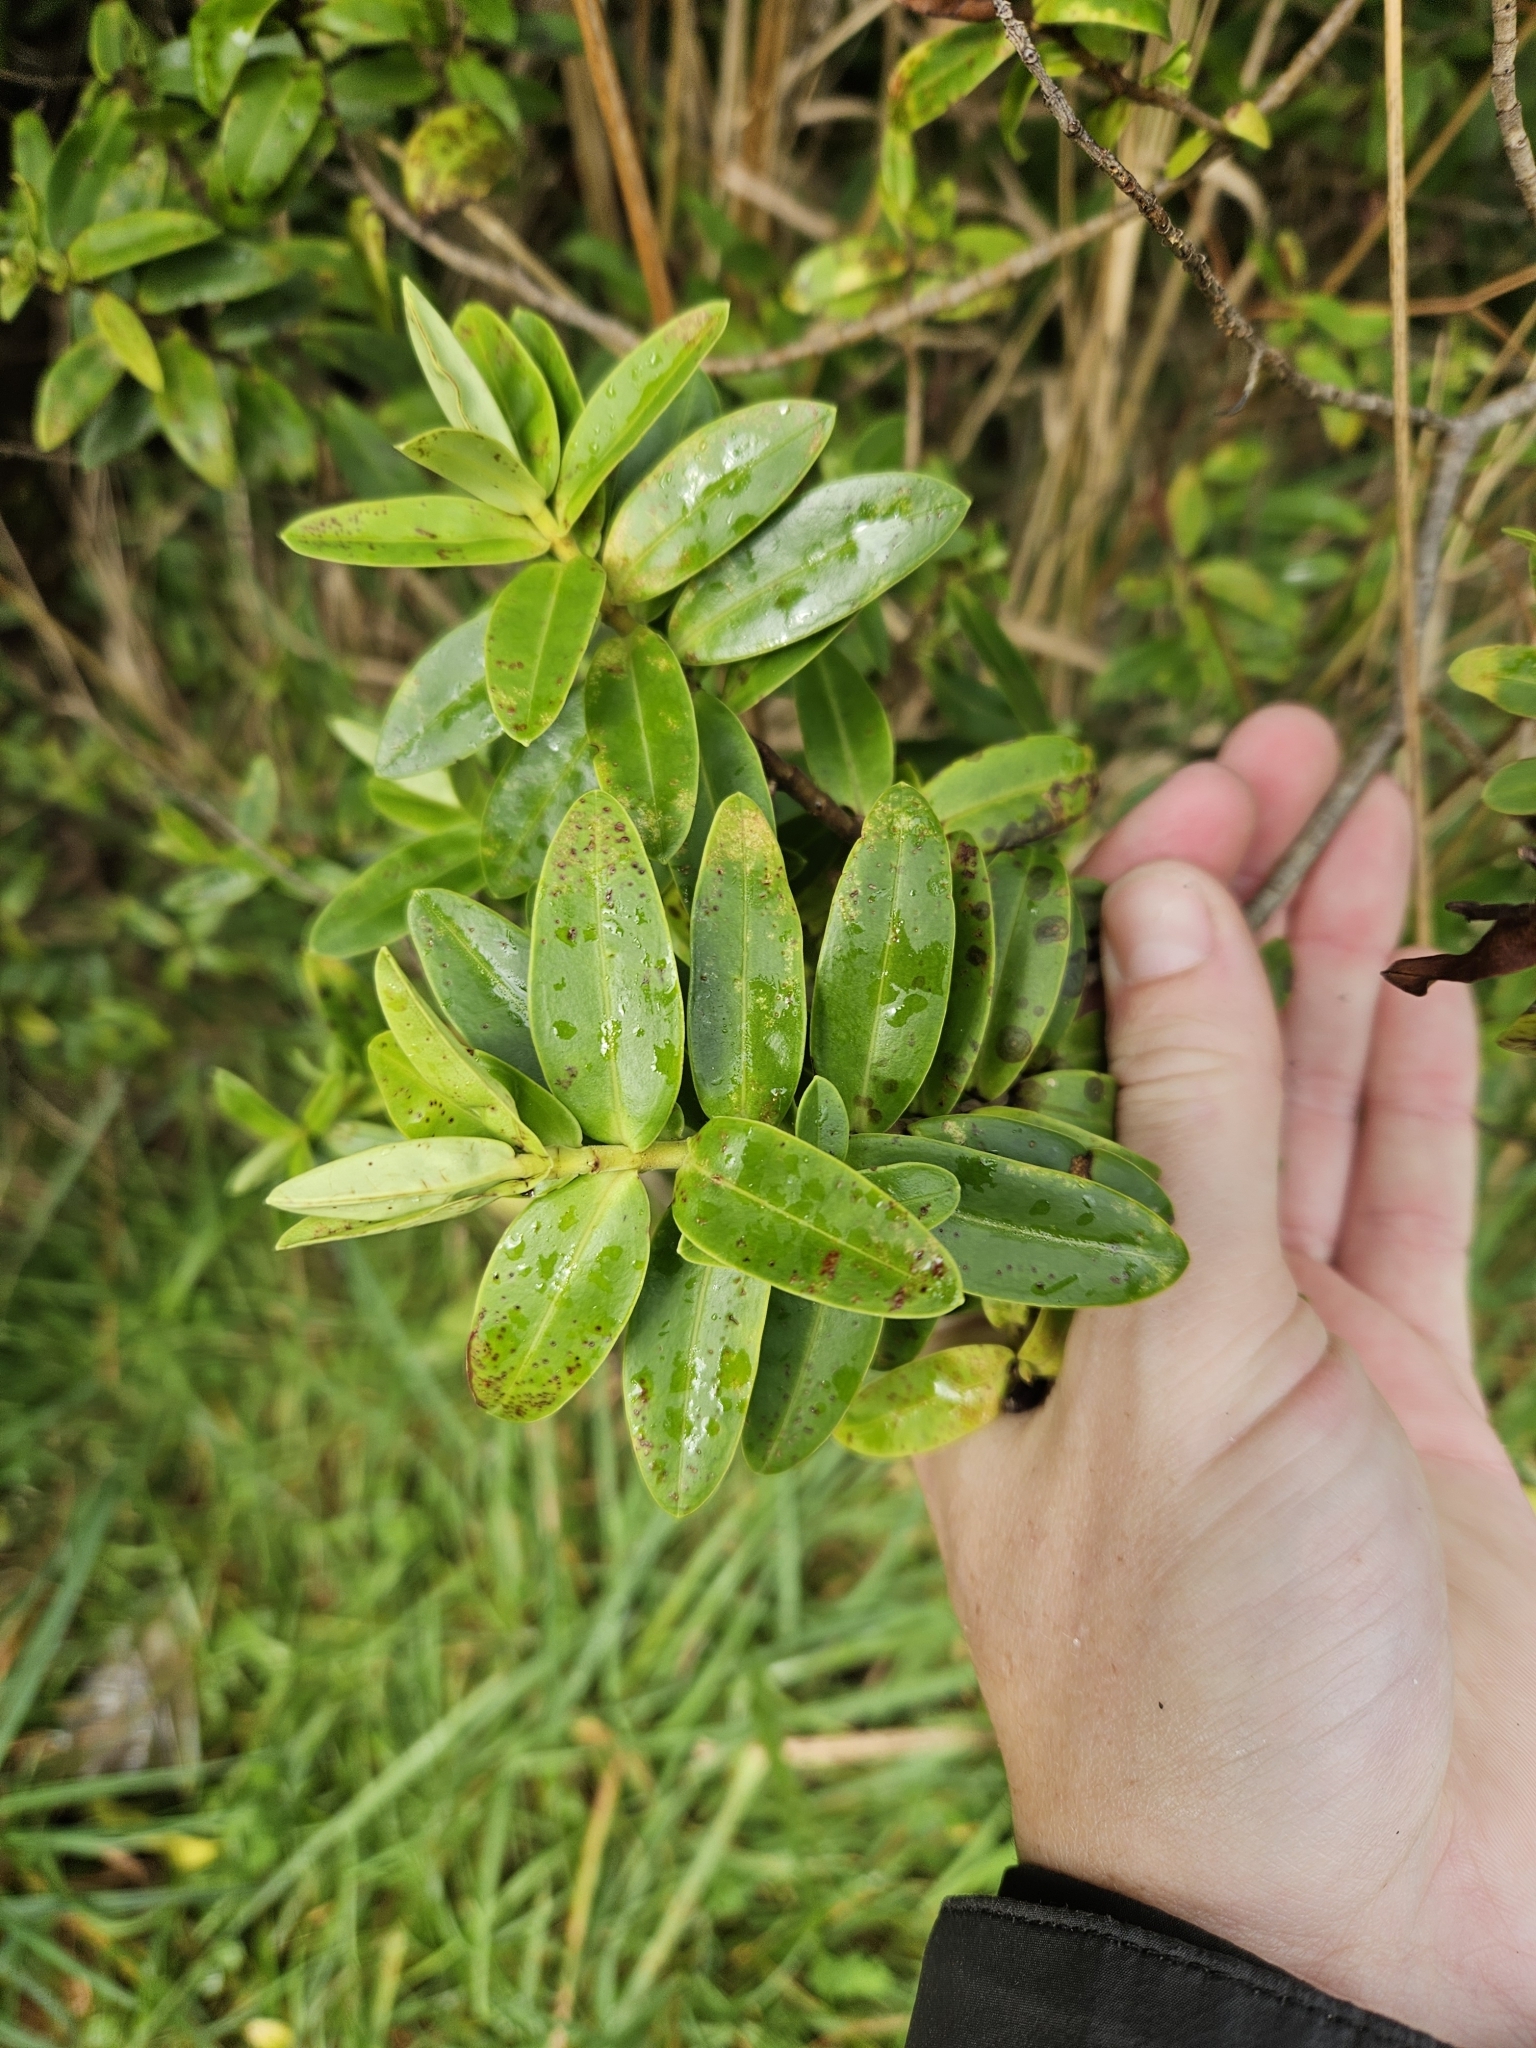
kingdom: Plantae
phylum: Tracheophyta
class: Magnoliopsida
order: Lamiales
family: Plantaginaceae
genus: Veronica
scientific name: Veronica elliptica
